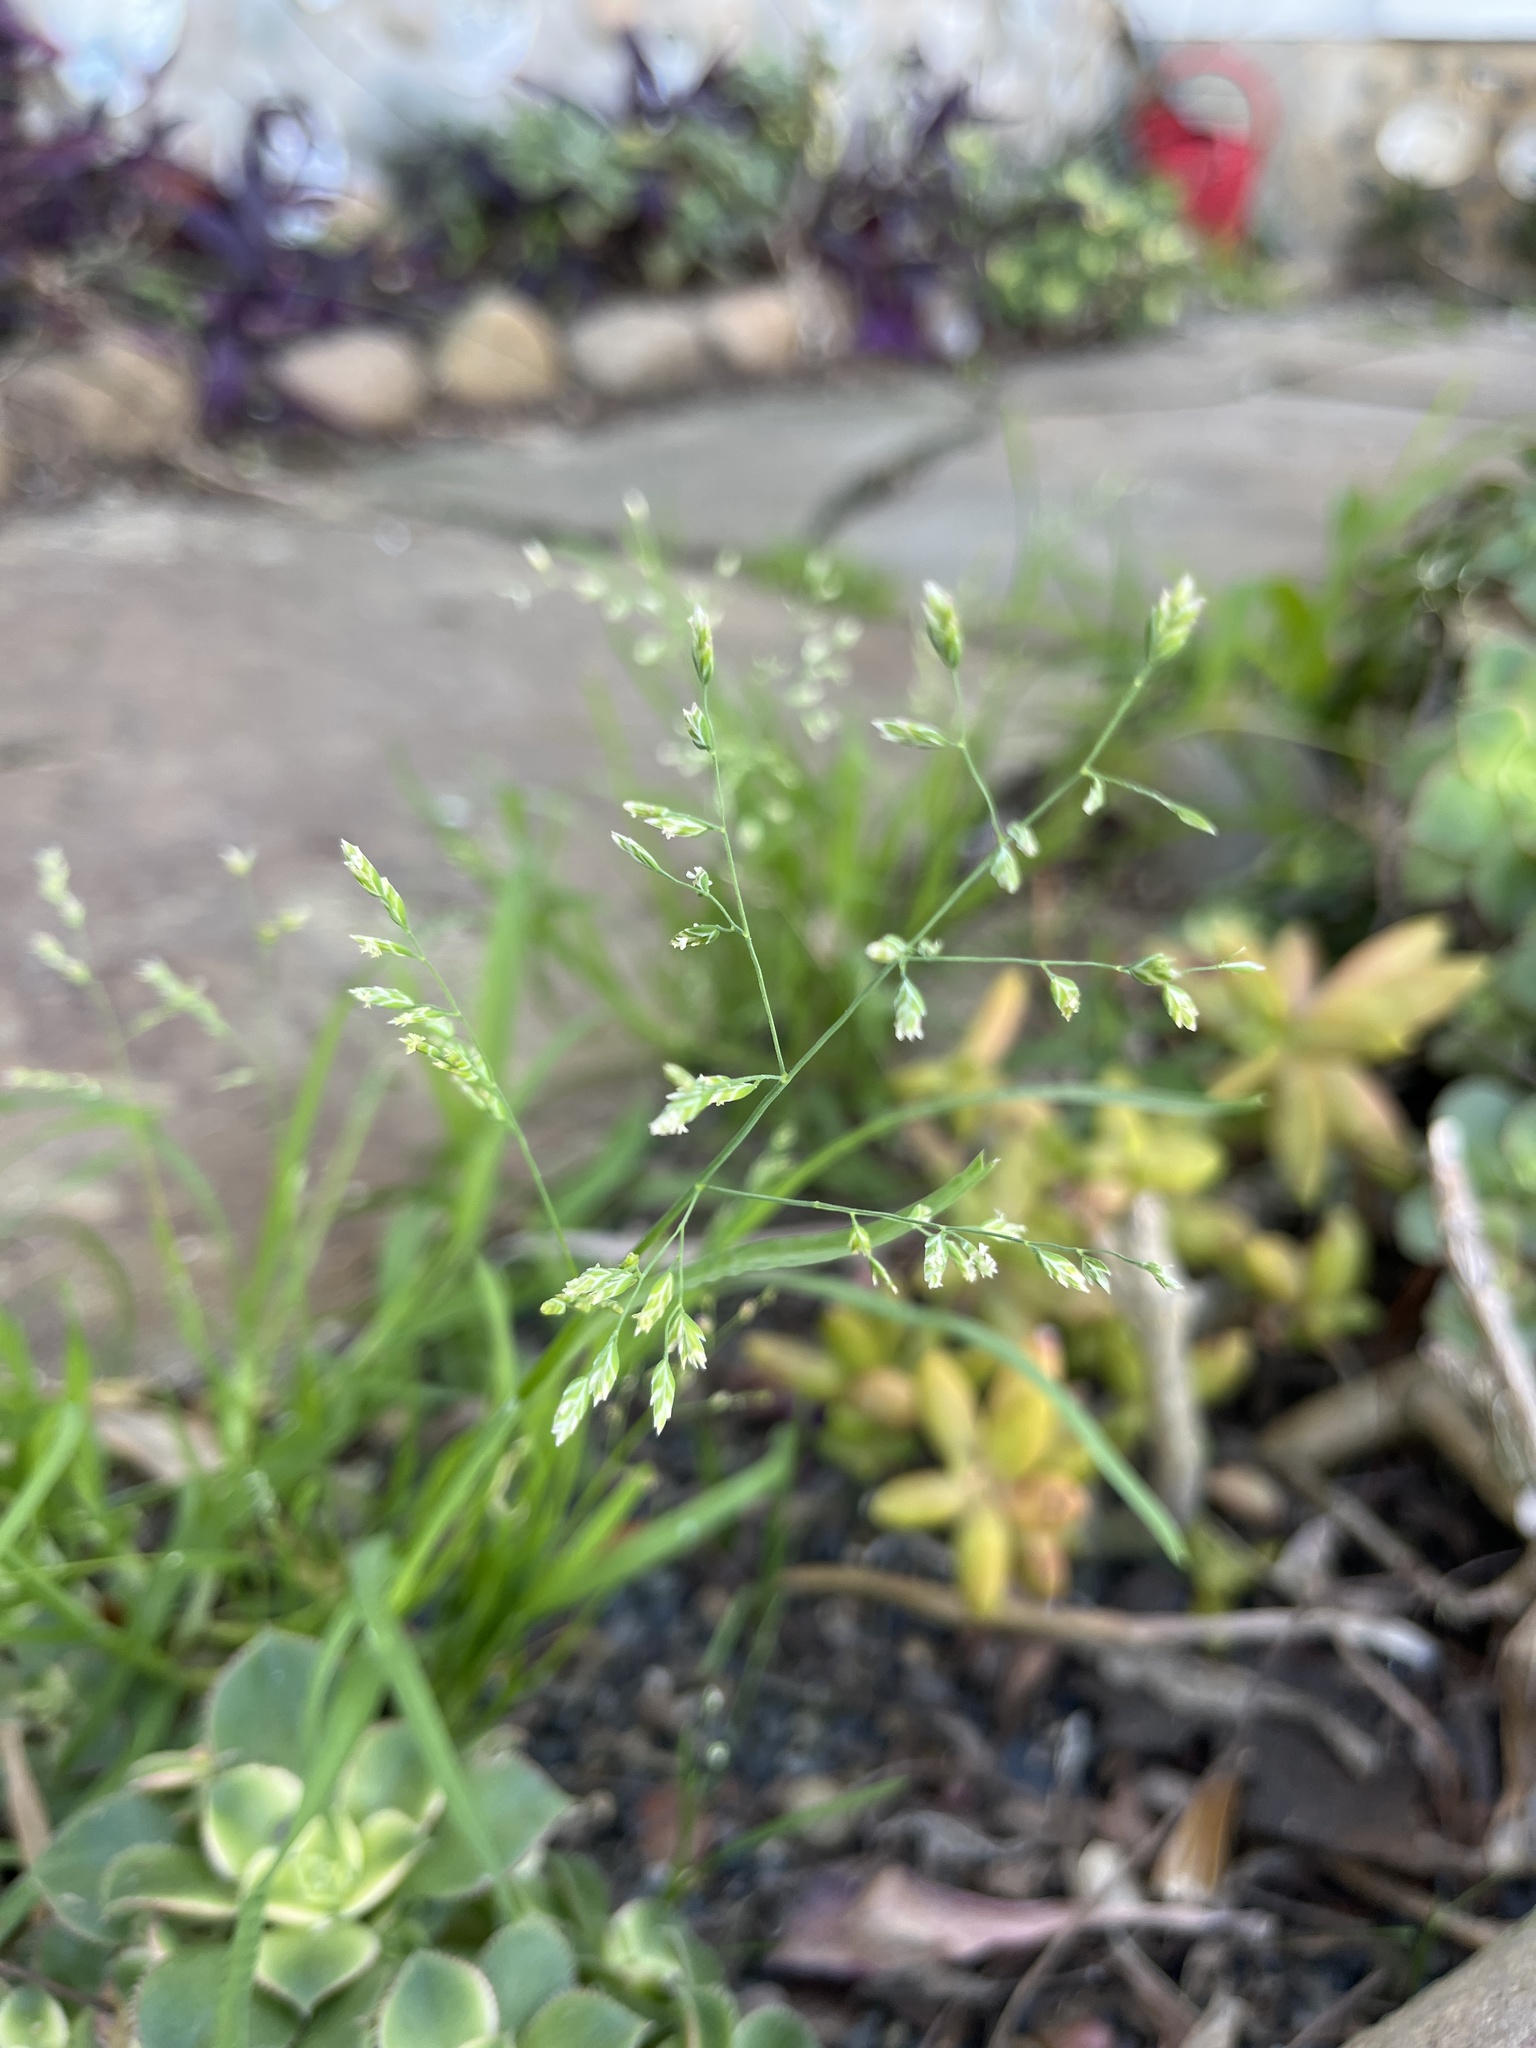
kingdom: Plantae
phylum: Tracheophyta
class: Liliopsida
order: Poales
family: Poaceae
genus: Poa
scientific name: Poa annua
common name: Annual bluegrass
